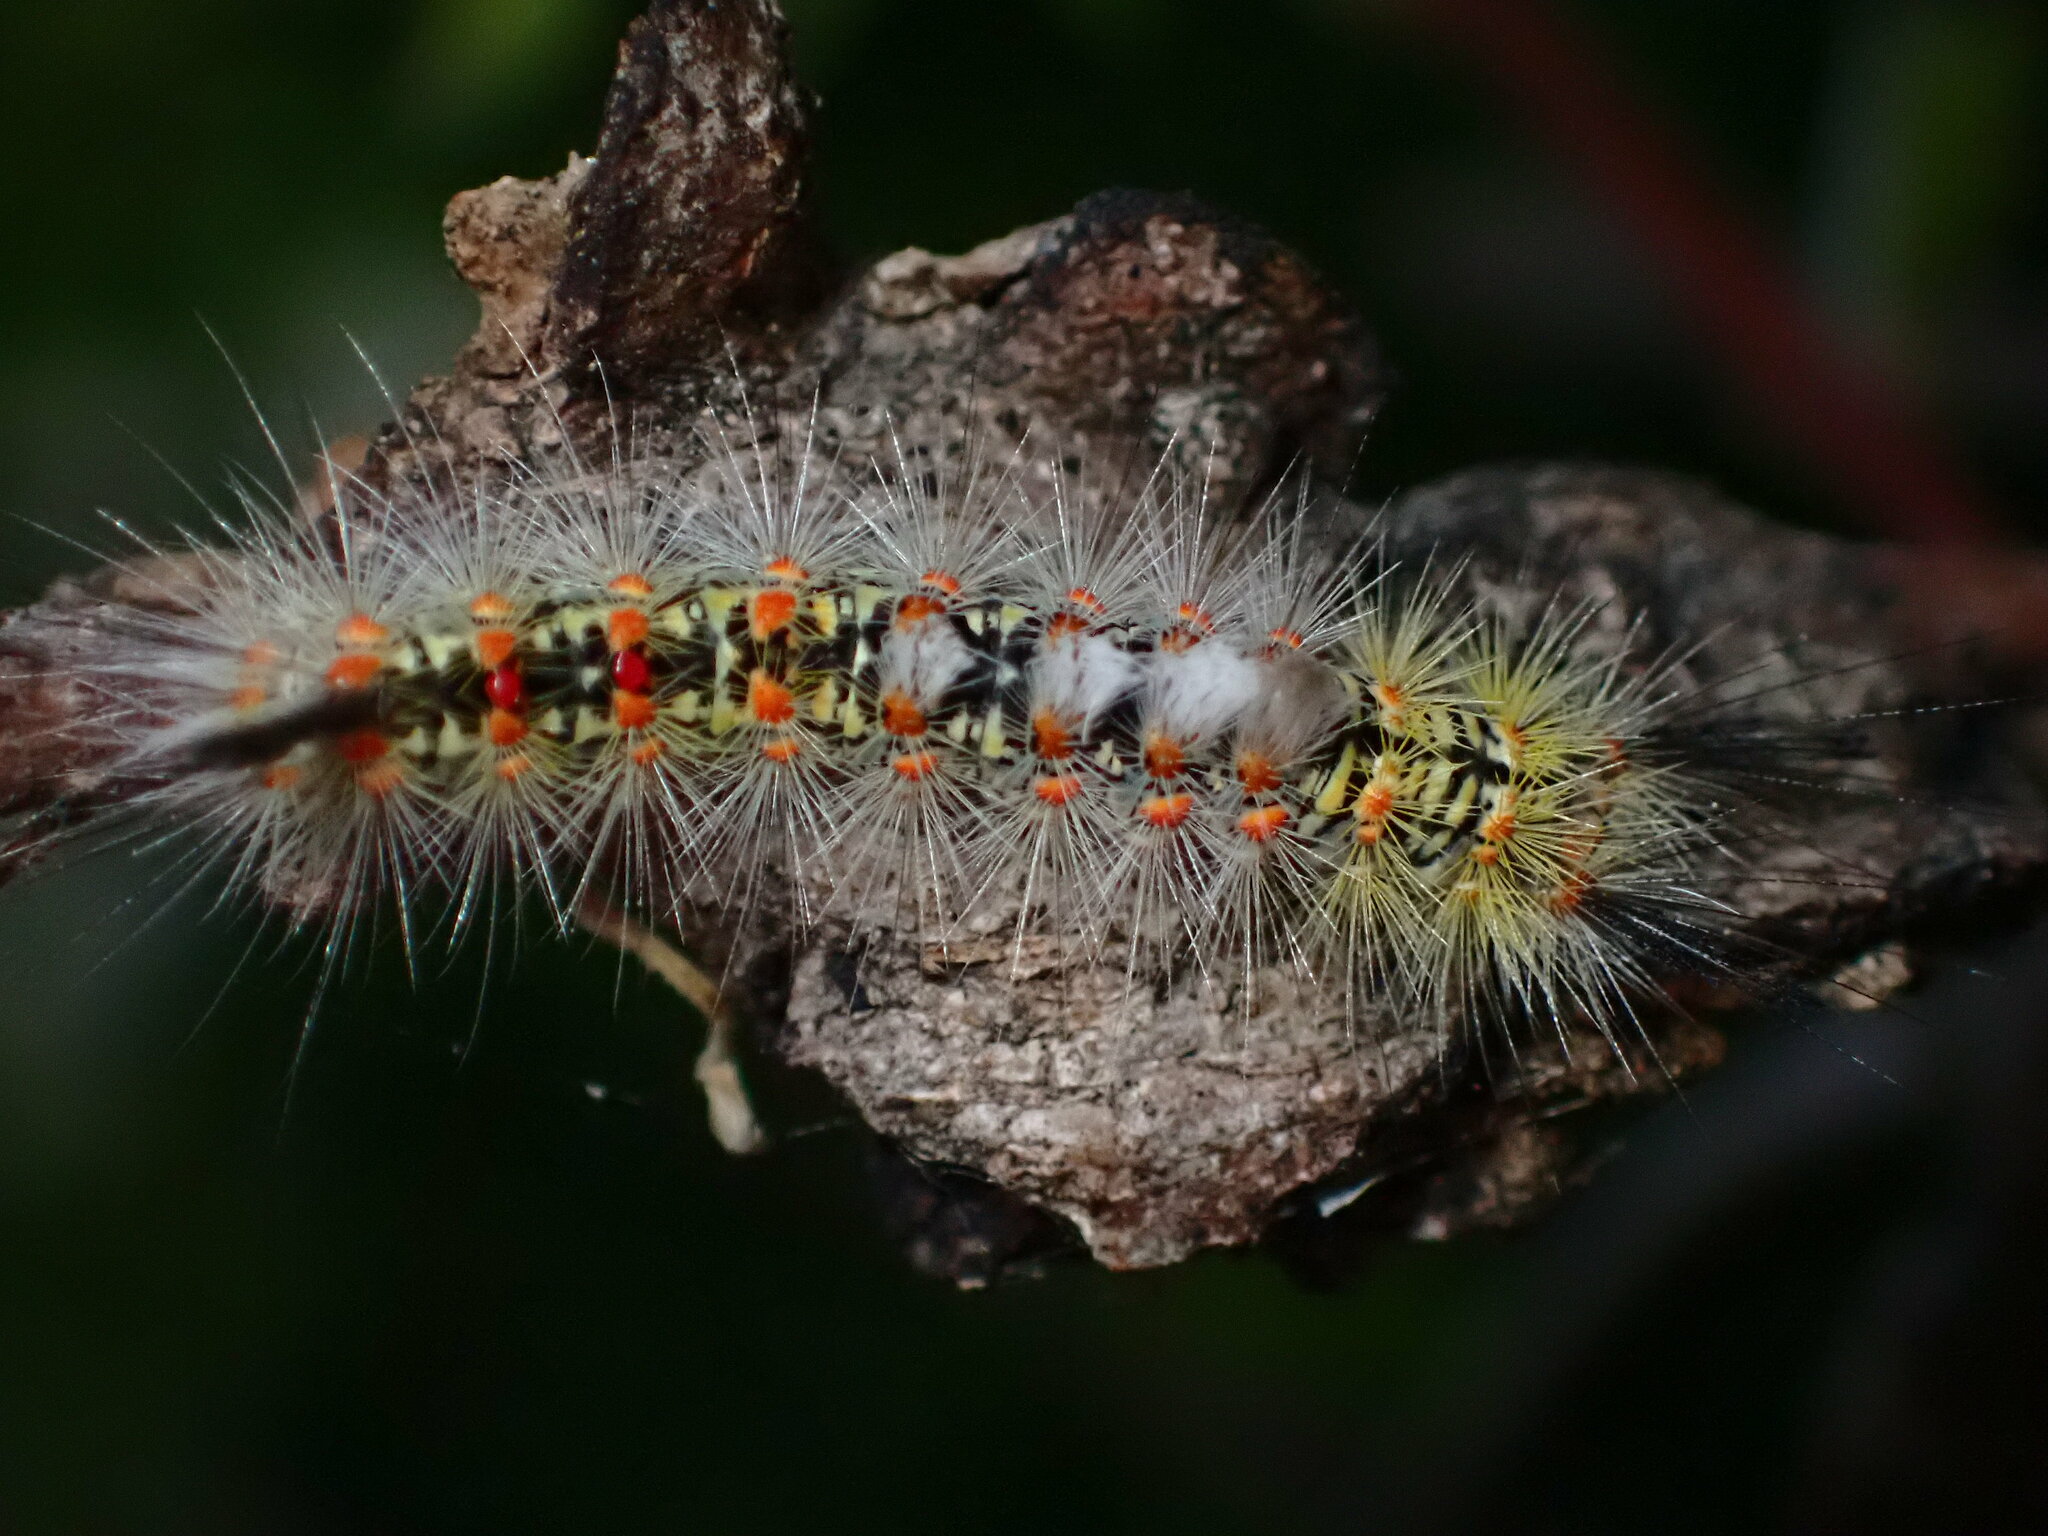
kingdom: Animalia
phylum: Arthropoda
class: Insecta
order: Lepidoptera
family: Erebidae
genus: Orgyia
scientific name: Orgyia vetusta
